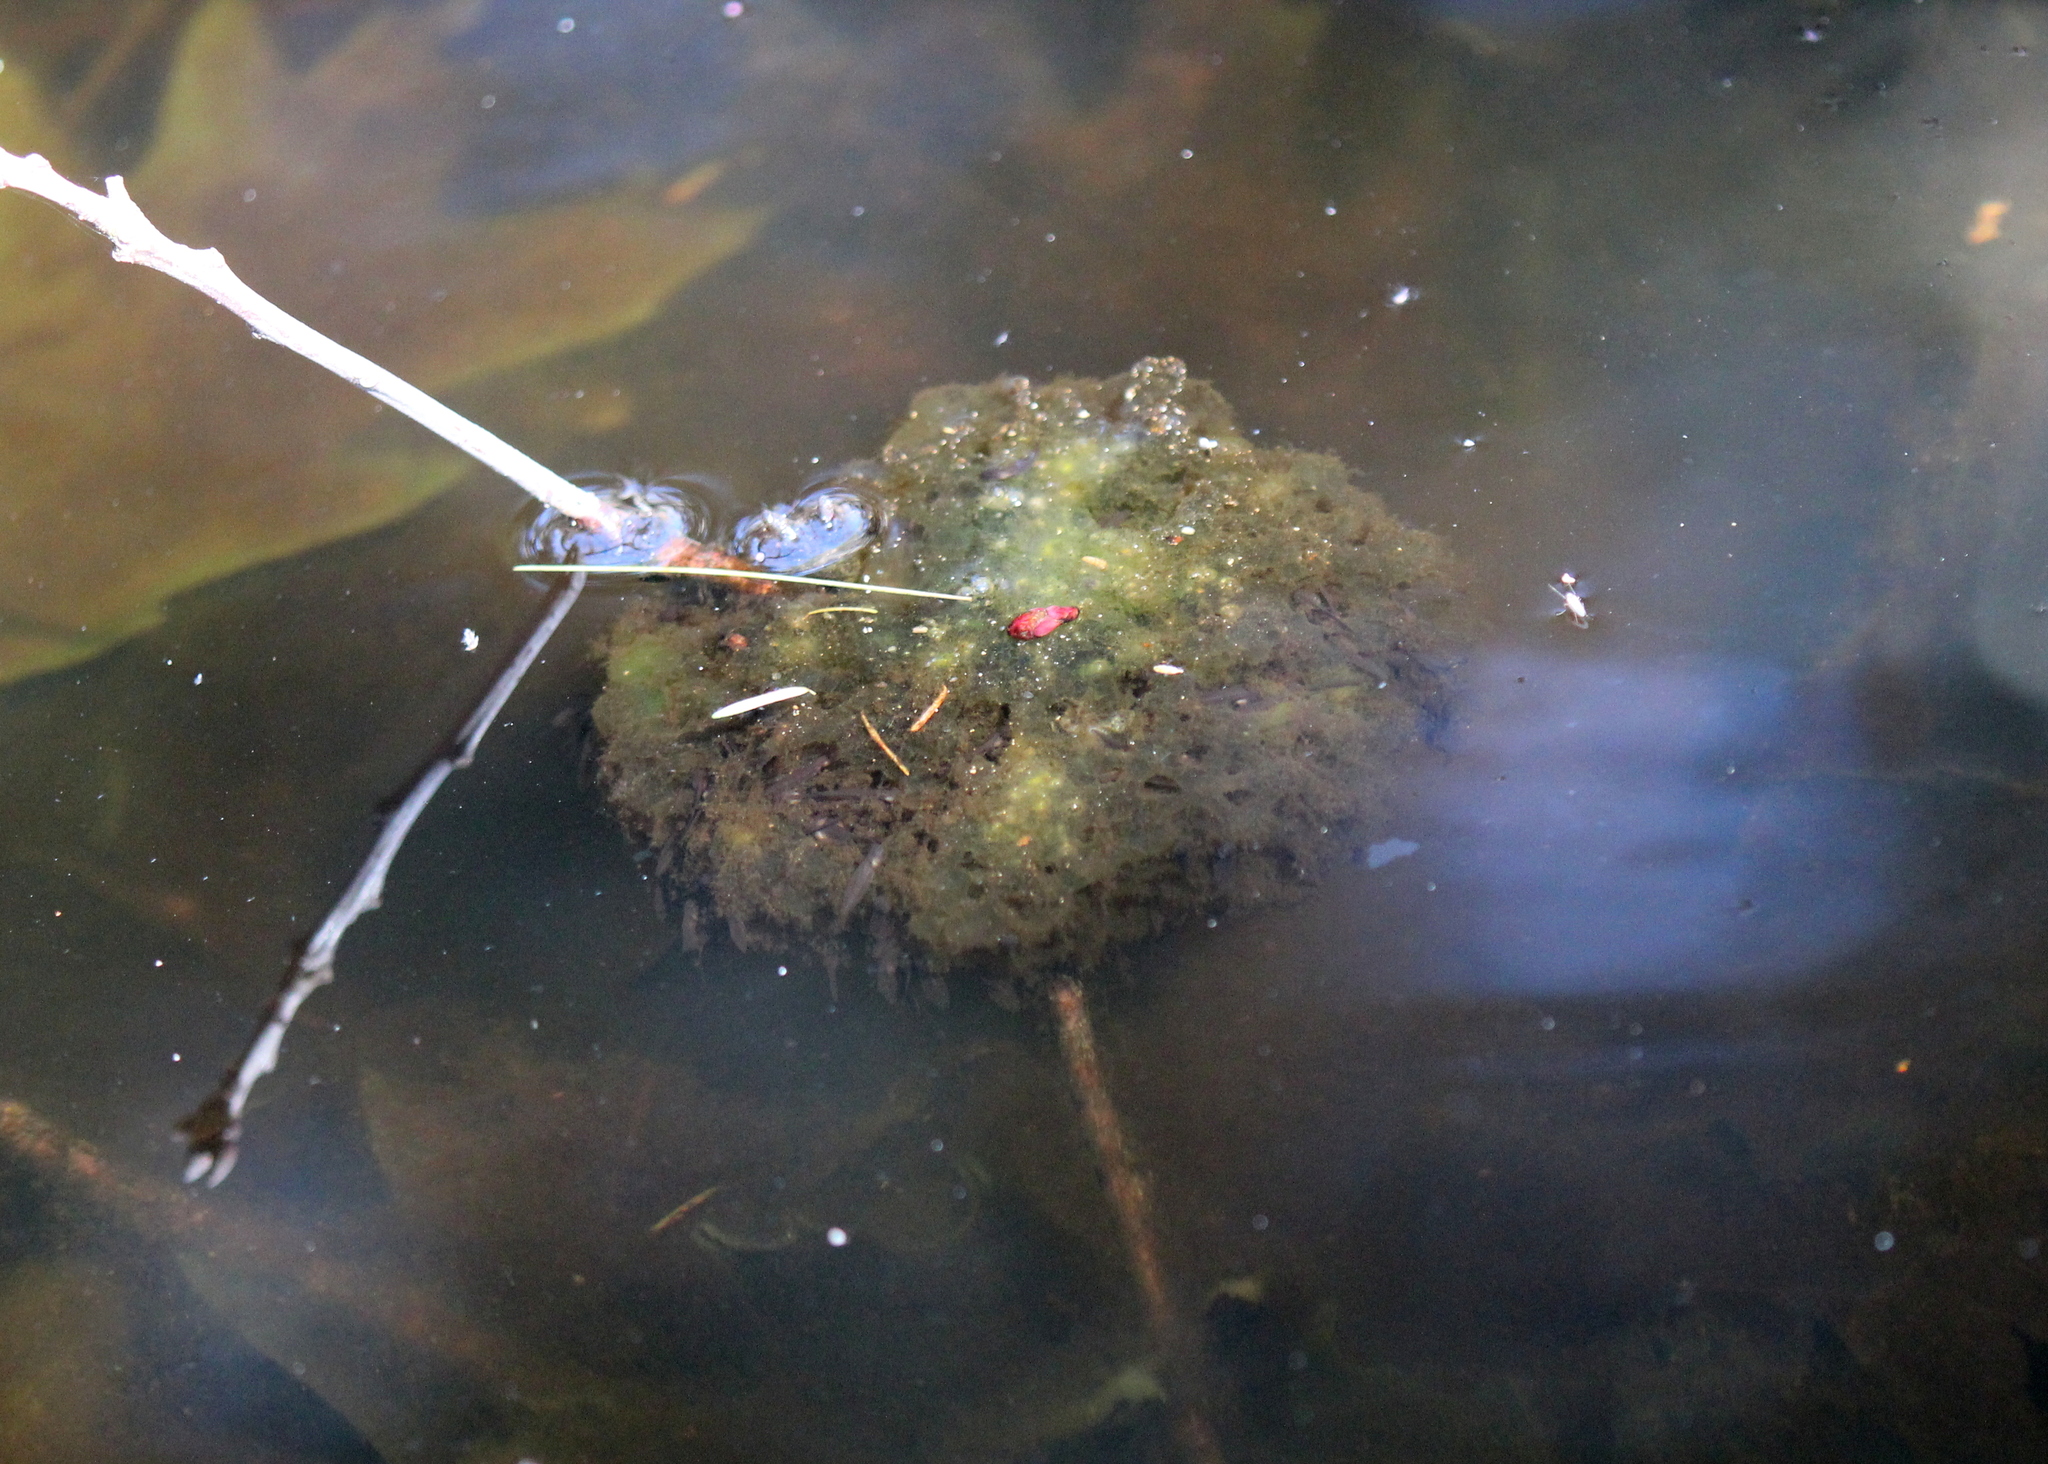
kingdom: Animalia
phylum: Chordata
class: Amphibia
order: Anura
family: Ranidae
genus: Lithobates
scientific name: Lithobates sylvaticus
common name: Wood frog
